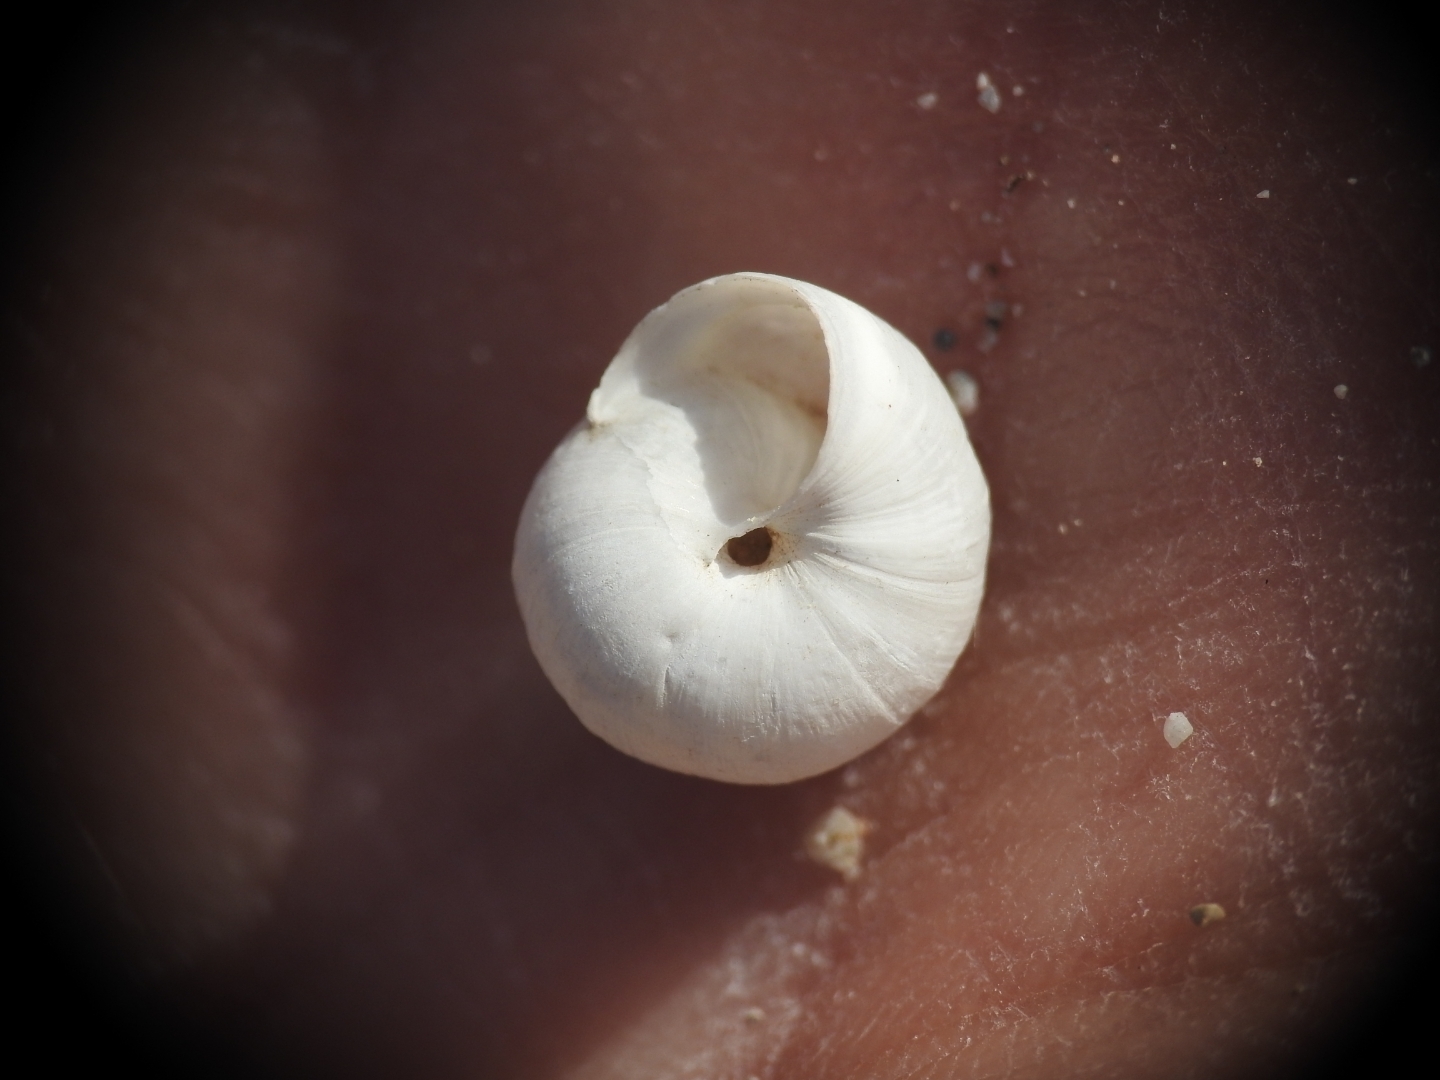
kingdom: Animalia
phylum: Mollusca
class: Gastropoda
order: Stylommatophora
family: Geomitridae
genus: Xeromunda
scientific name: Xeromunda candiota
